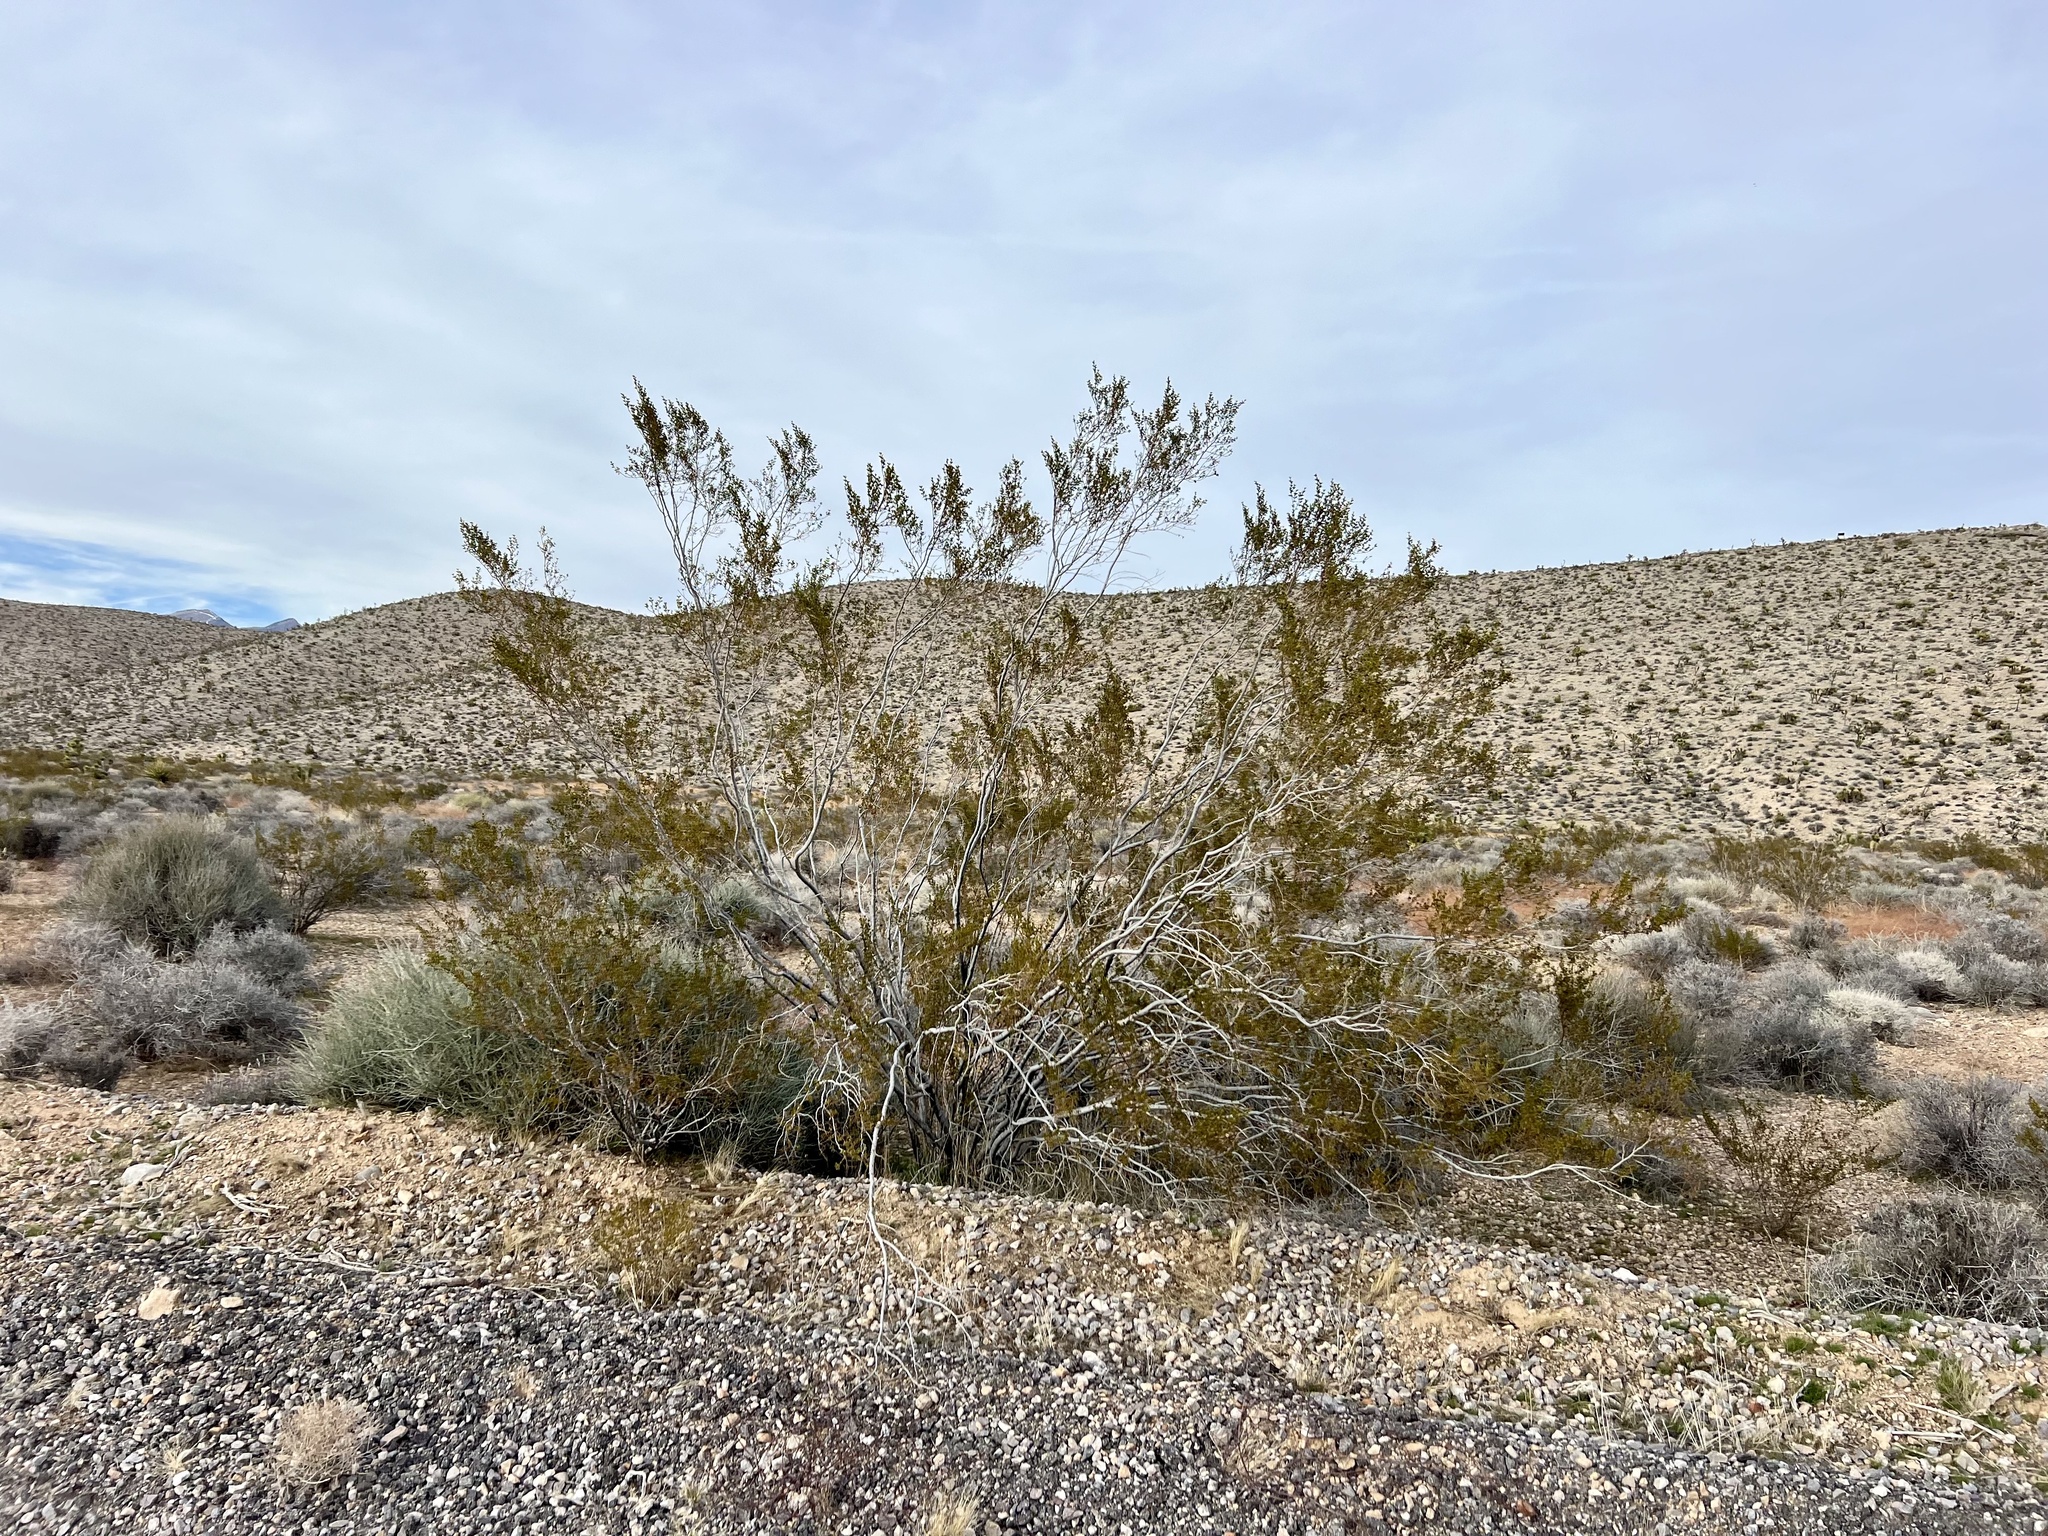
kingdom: Plantae
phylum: Tracheophyta
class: Magnoliopsida
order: Zygophyllales
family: Zygophyllaceae
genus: Larrea
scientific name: Larrea tridentata
